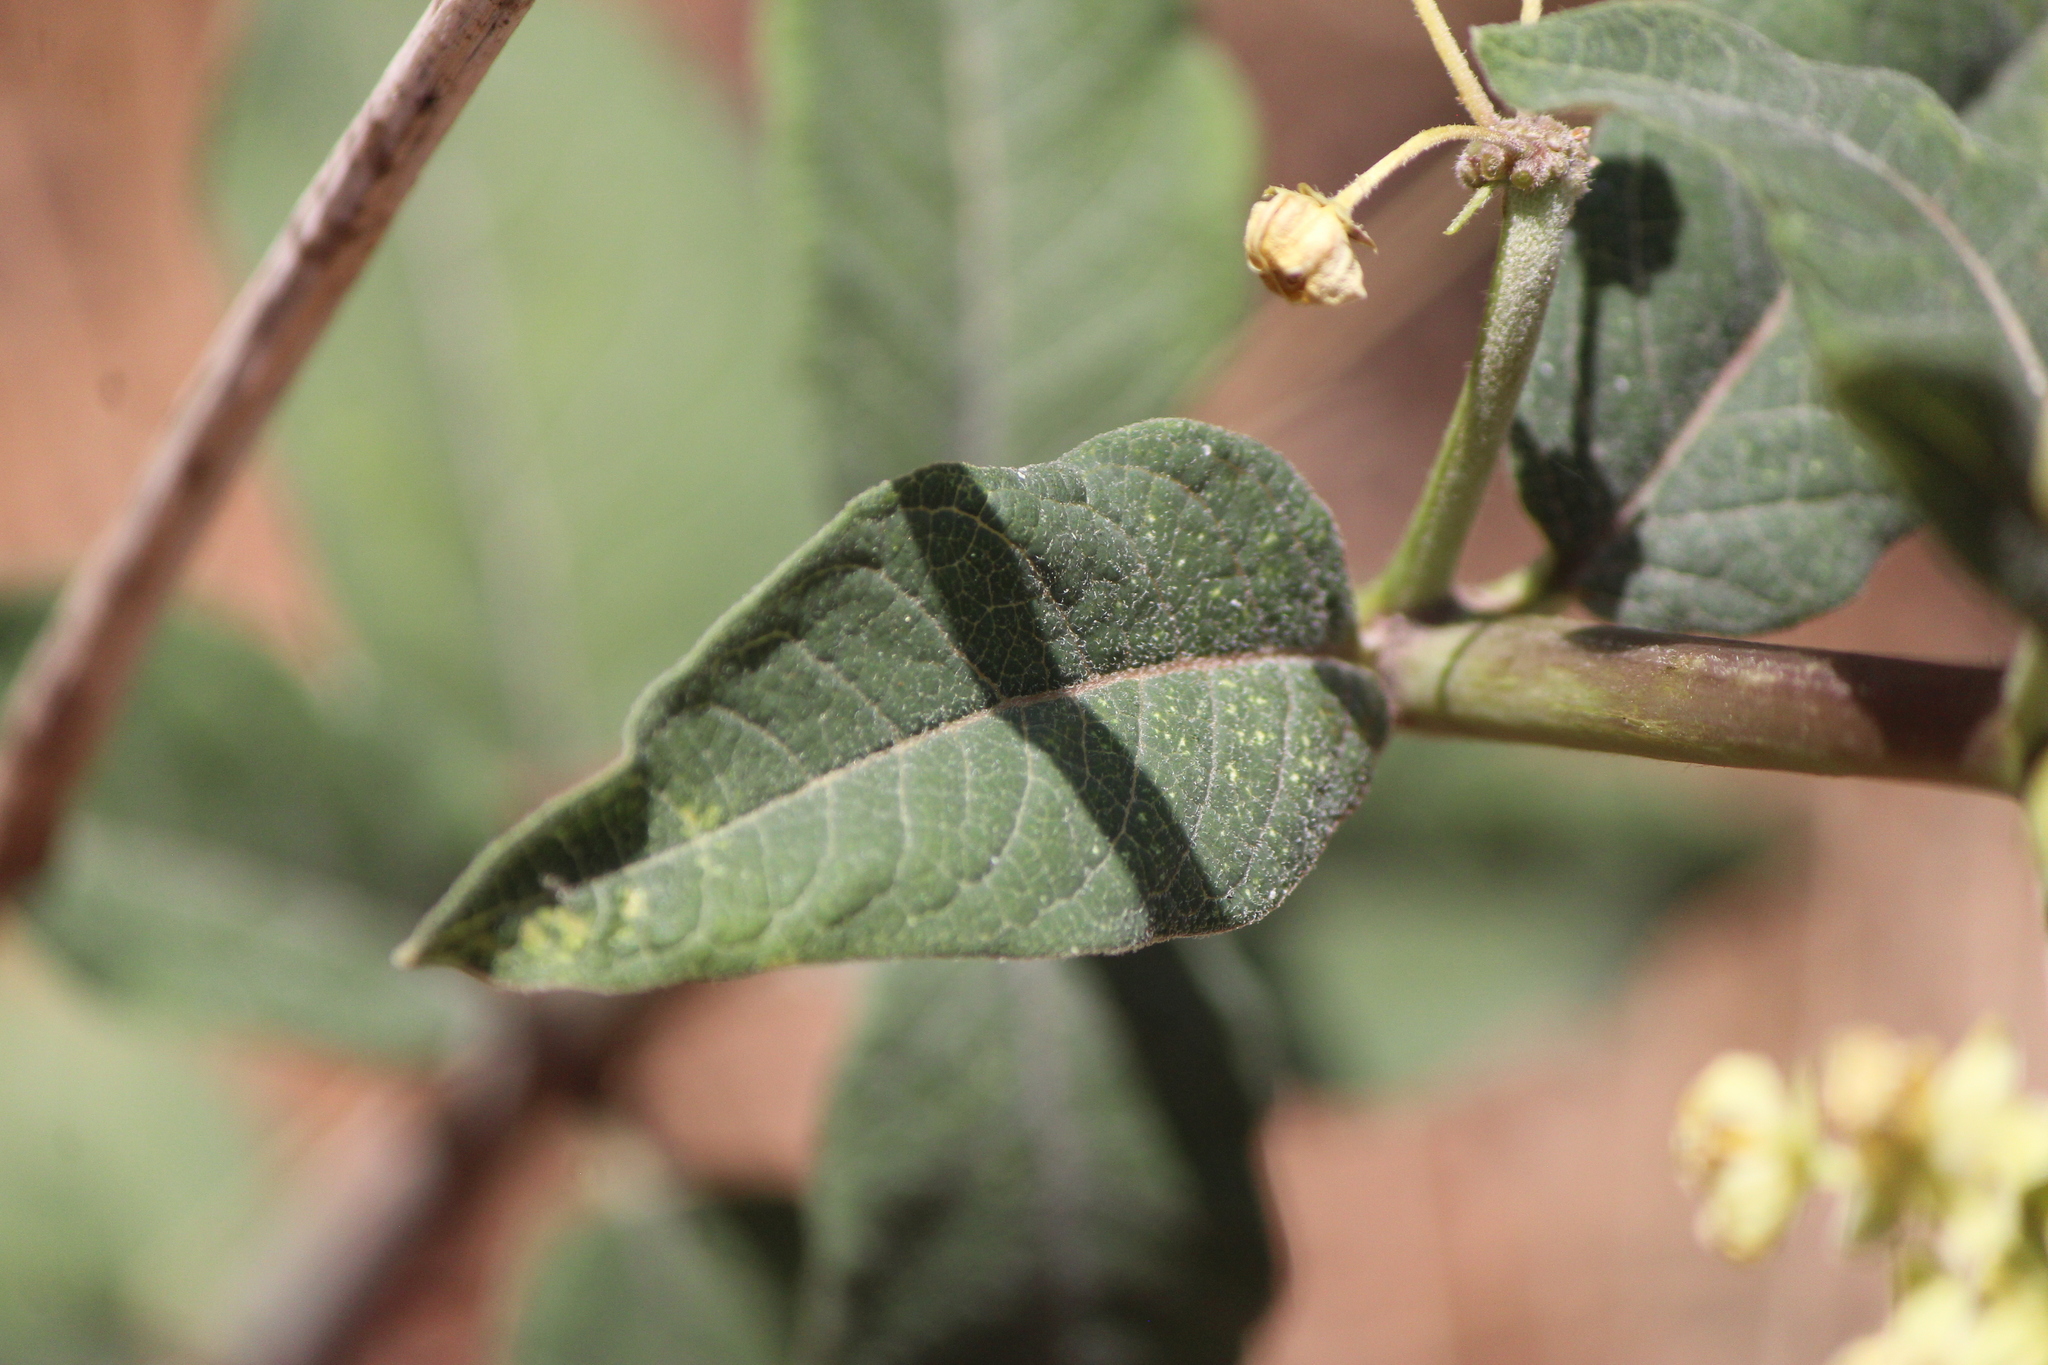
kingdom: Plantae
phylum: Tracheophyta
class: Magnoliopsida
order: Gentianales
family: Apocynaceae
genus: Asclepias
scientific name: Asclepias similis
